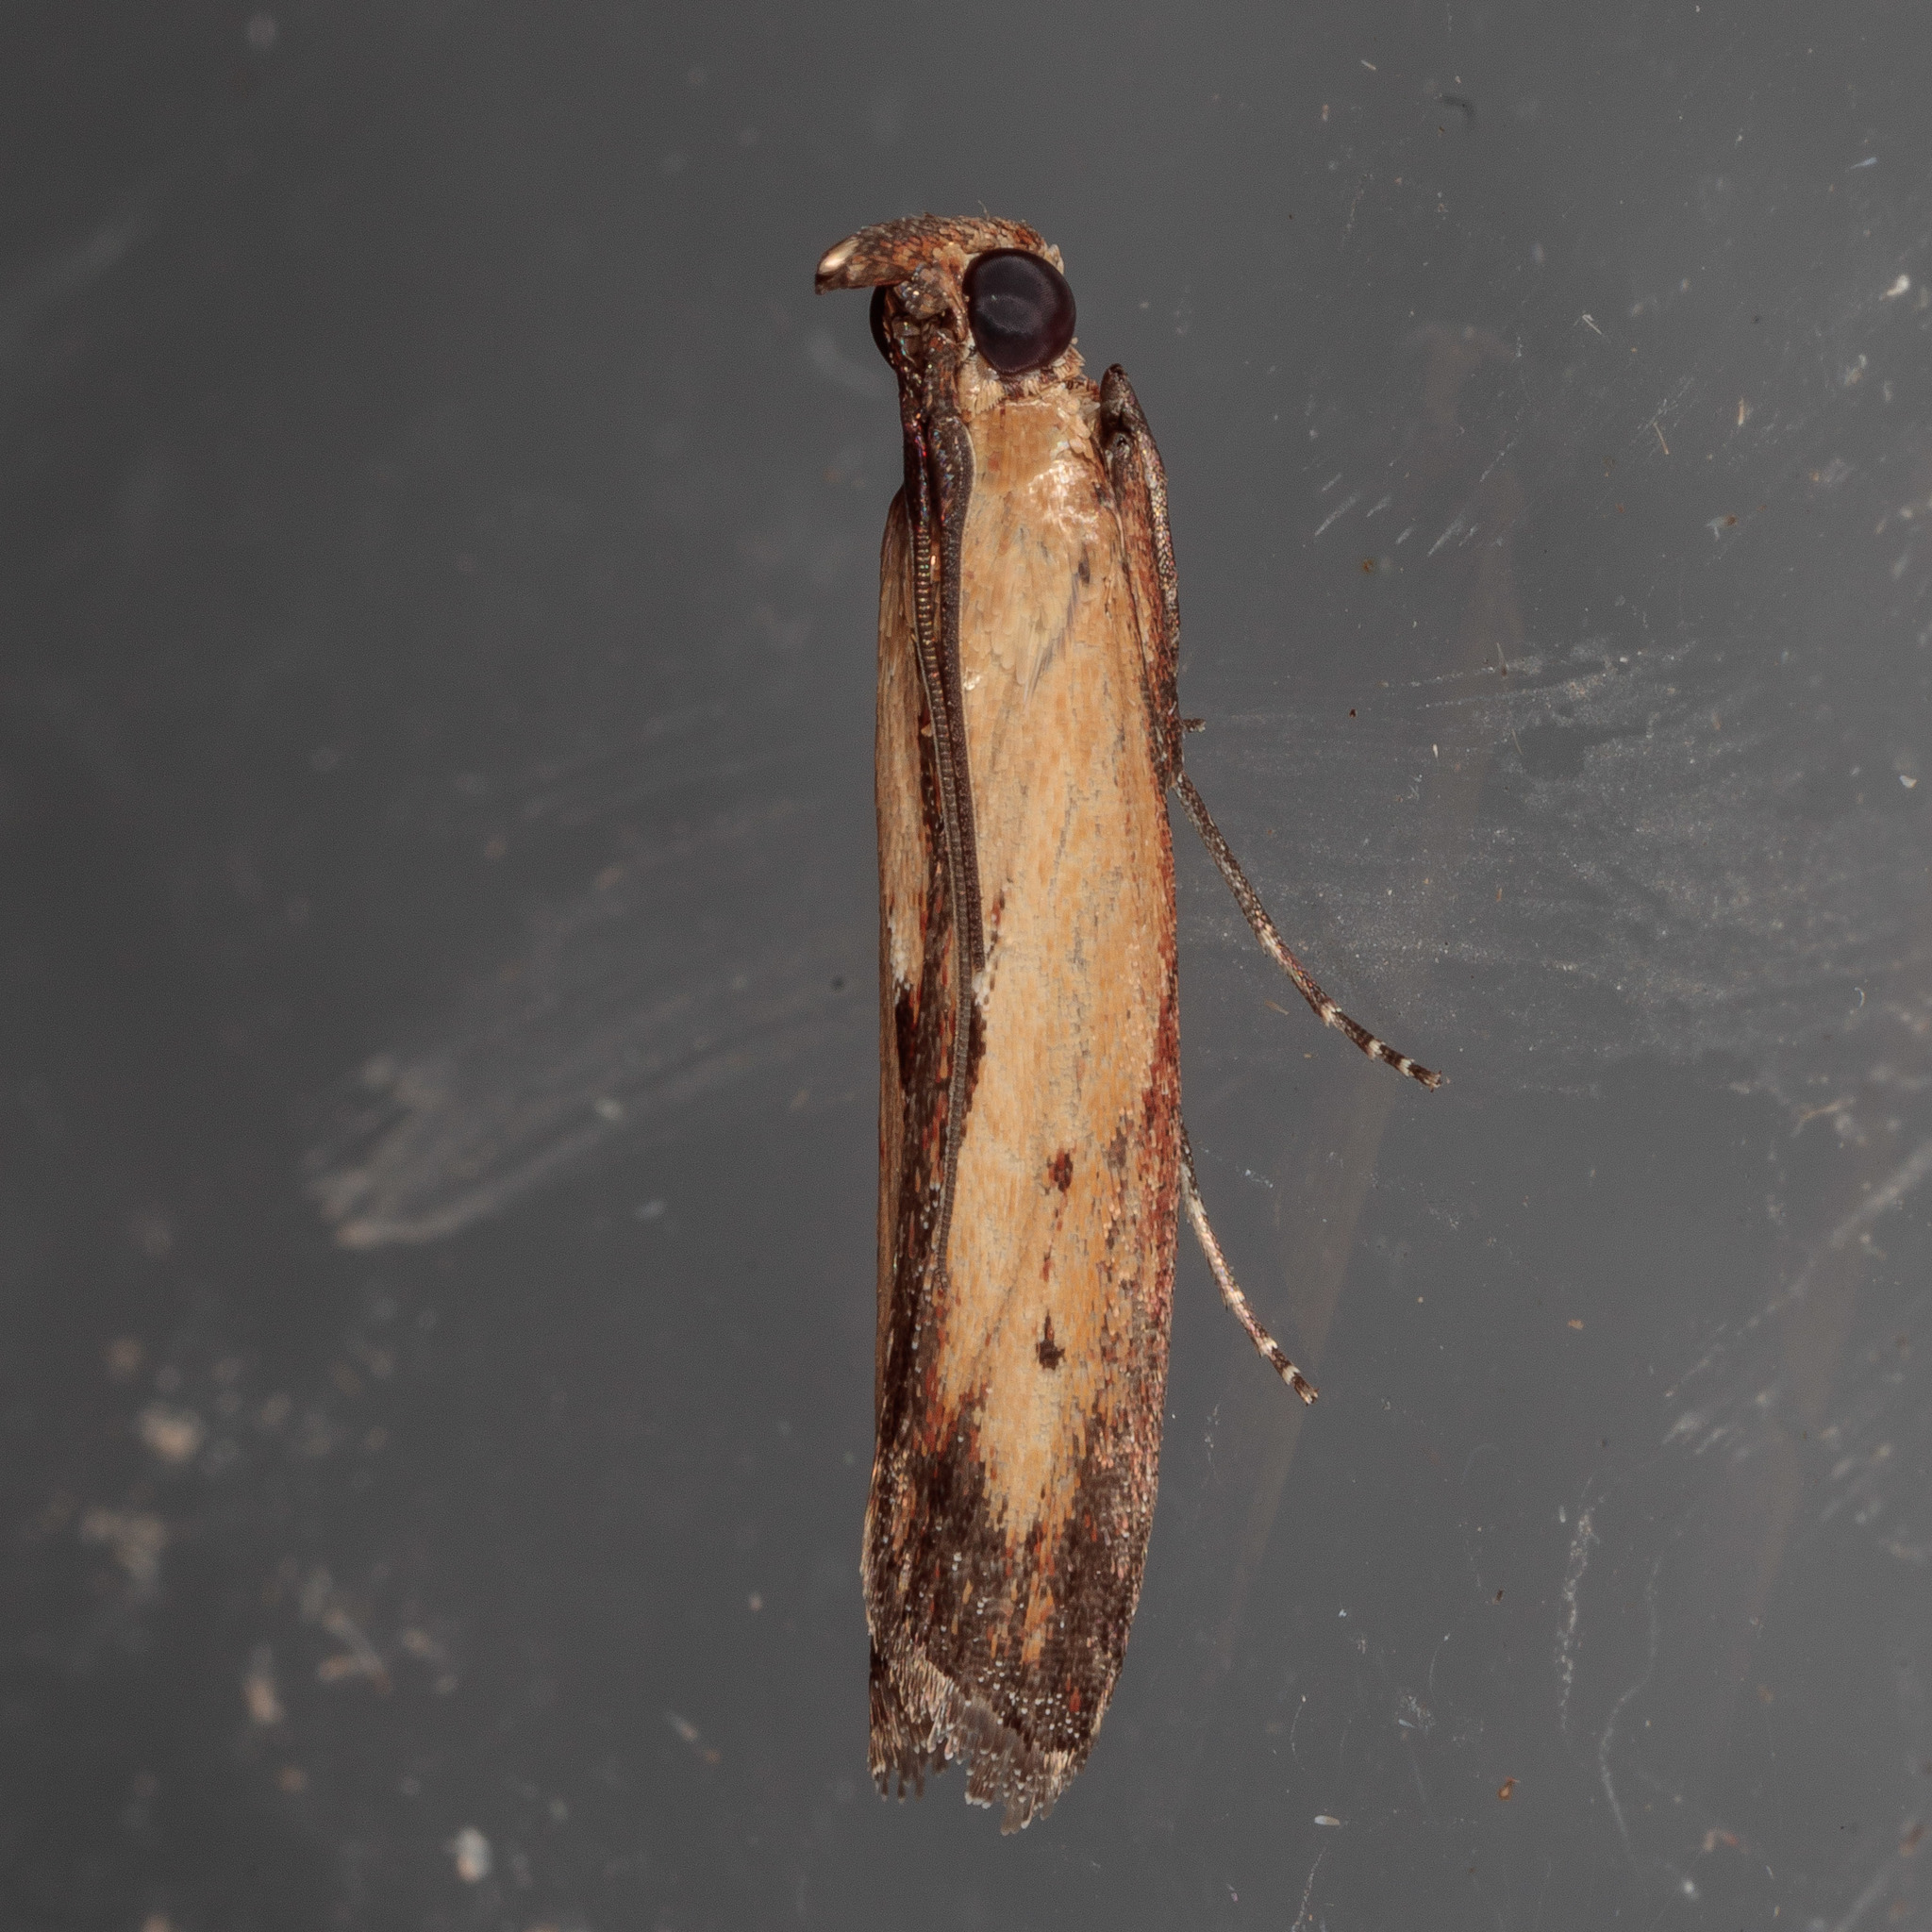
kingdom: Animalia
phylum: Arthropoda
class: Insecta
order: Lepidoptera
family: Pyralidae
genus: Elasmopalpus
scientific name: Elasmopalpus lignosella
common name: Lesser cornstalk borer
